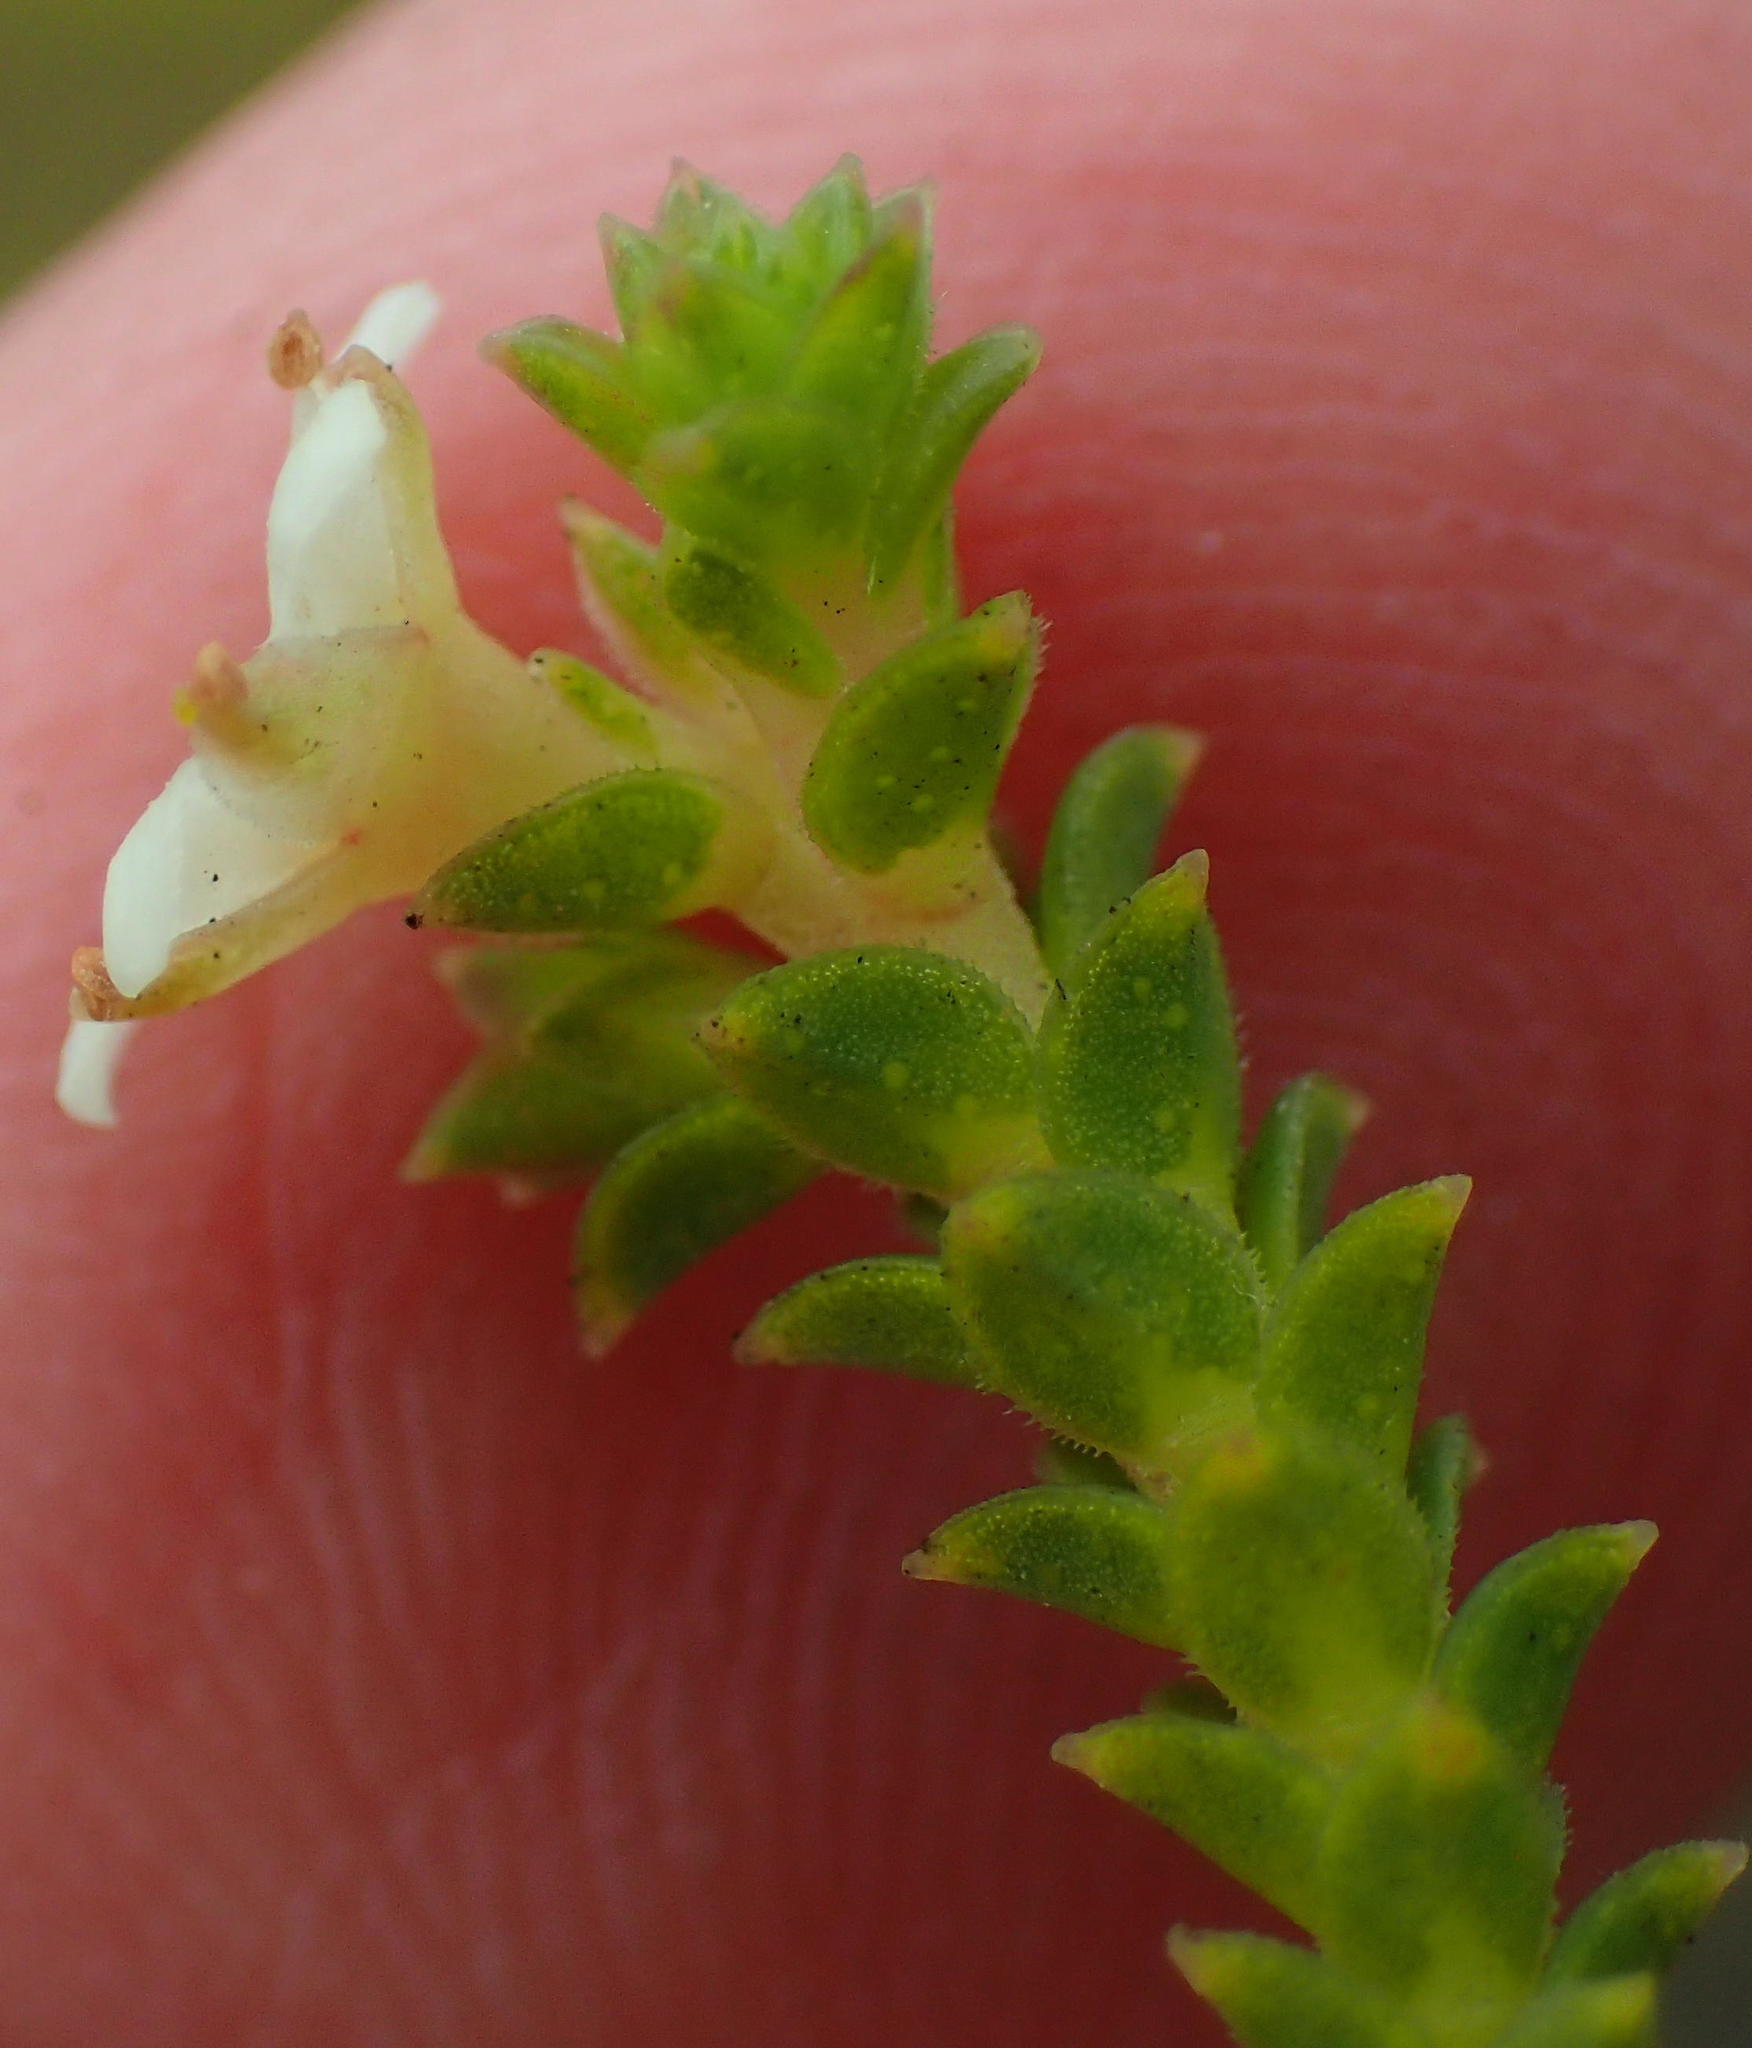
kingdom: Plantae
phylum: Tracheophyta
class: Magnoliopsida
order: Sapindales
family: Rutaceae
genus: Diosma
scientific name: Diosma sabulosa
